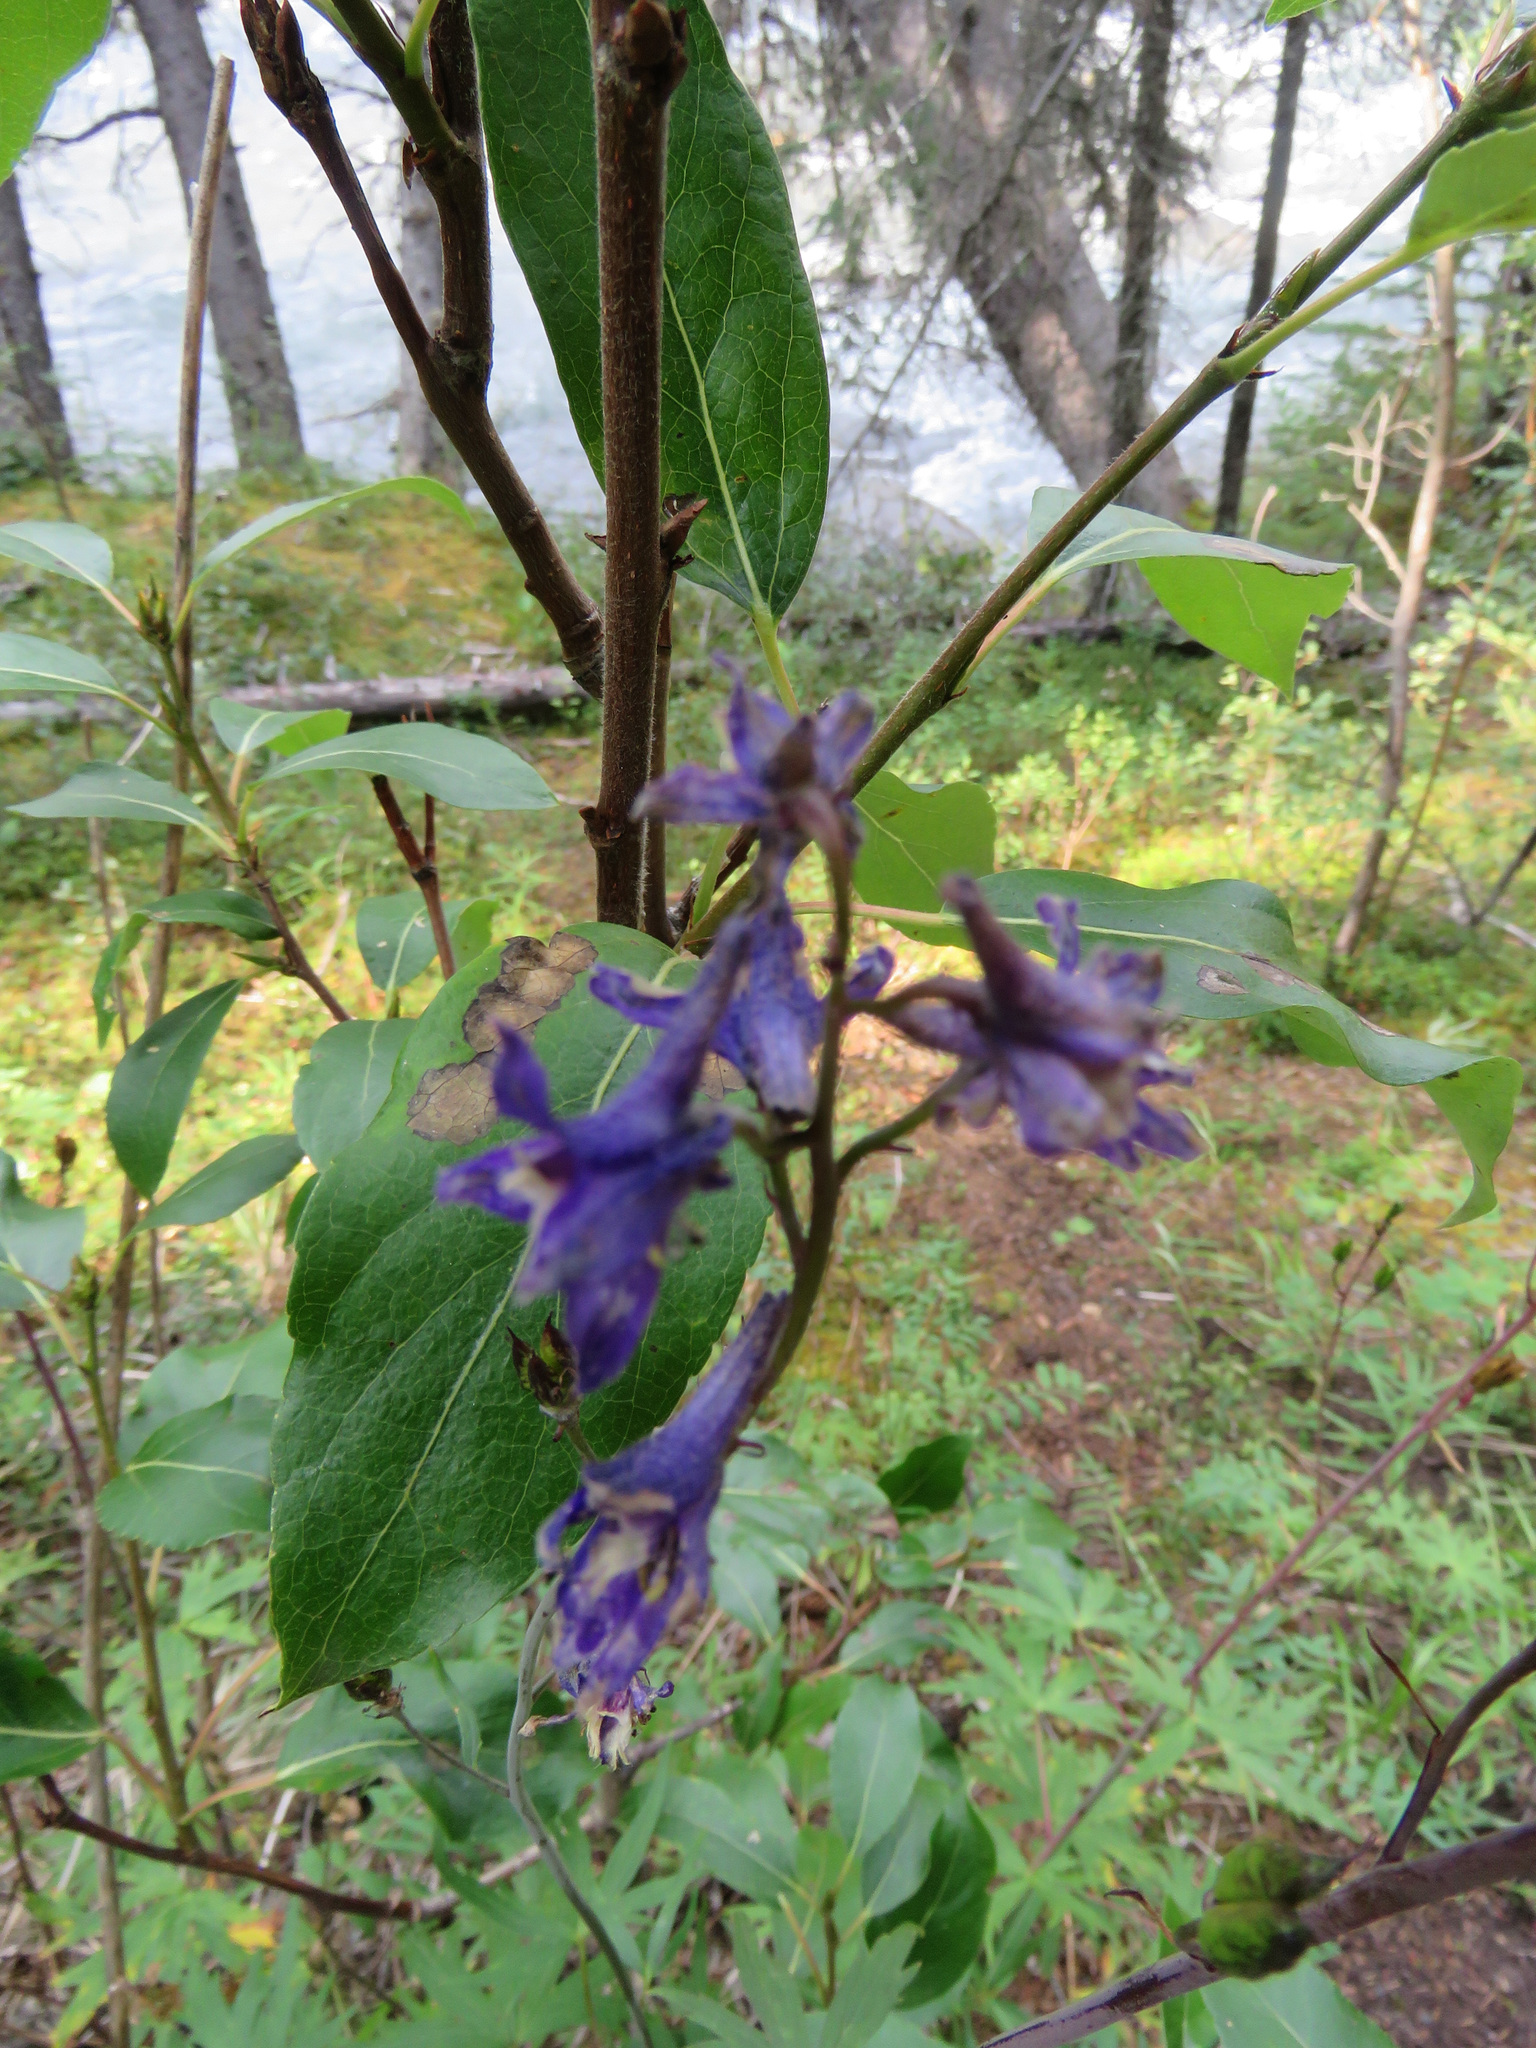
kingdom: Plantae
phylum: Tracheophyta
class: Magnoliopsida
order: Ranunculales
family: Ranunculaceae
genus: Delphinium
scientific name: Delphinium glaucum
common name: Brown's larkspur
